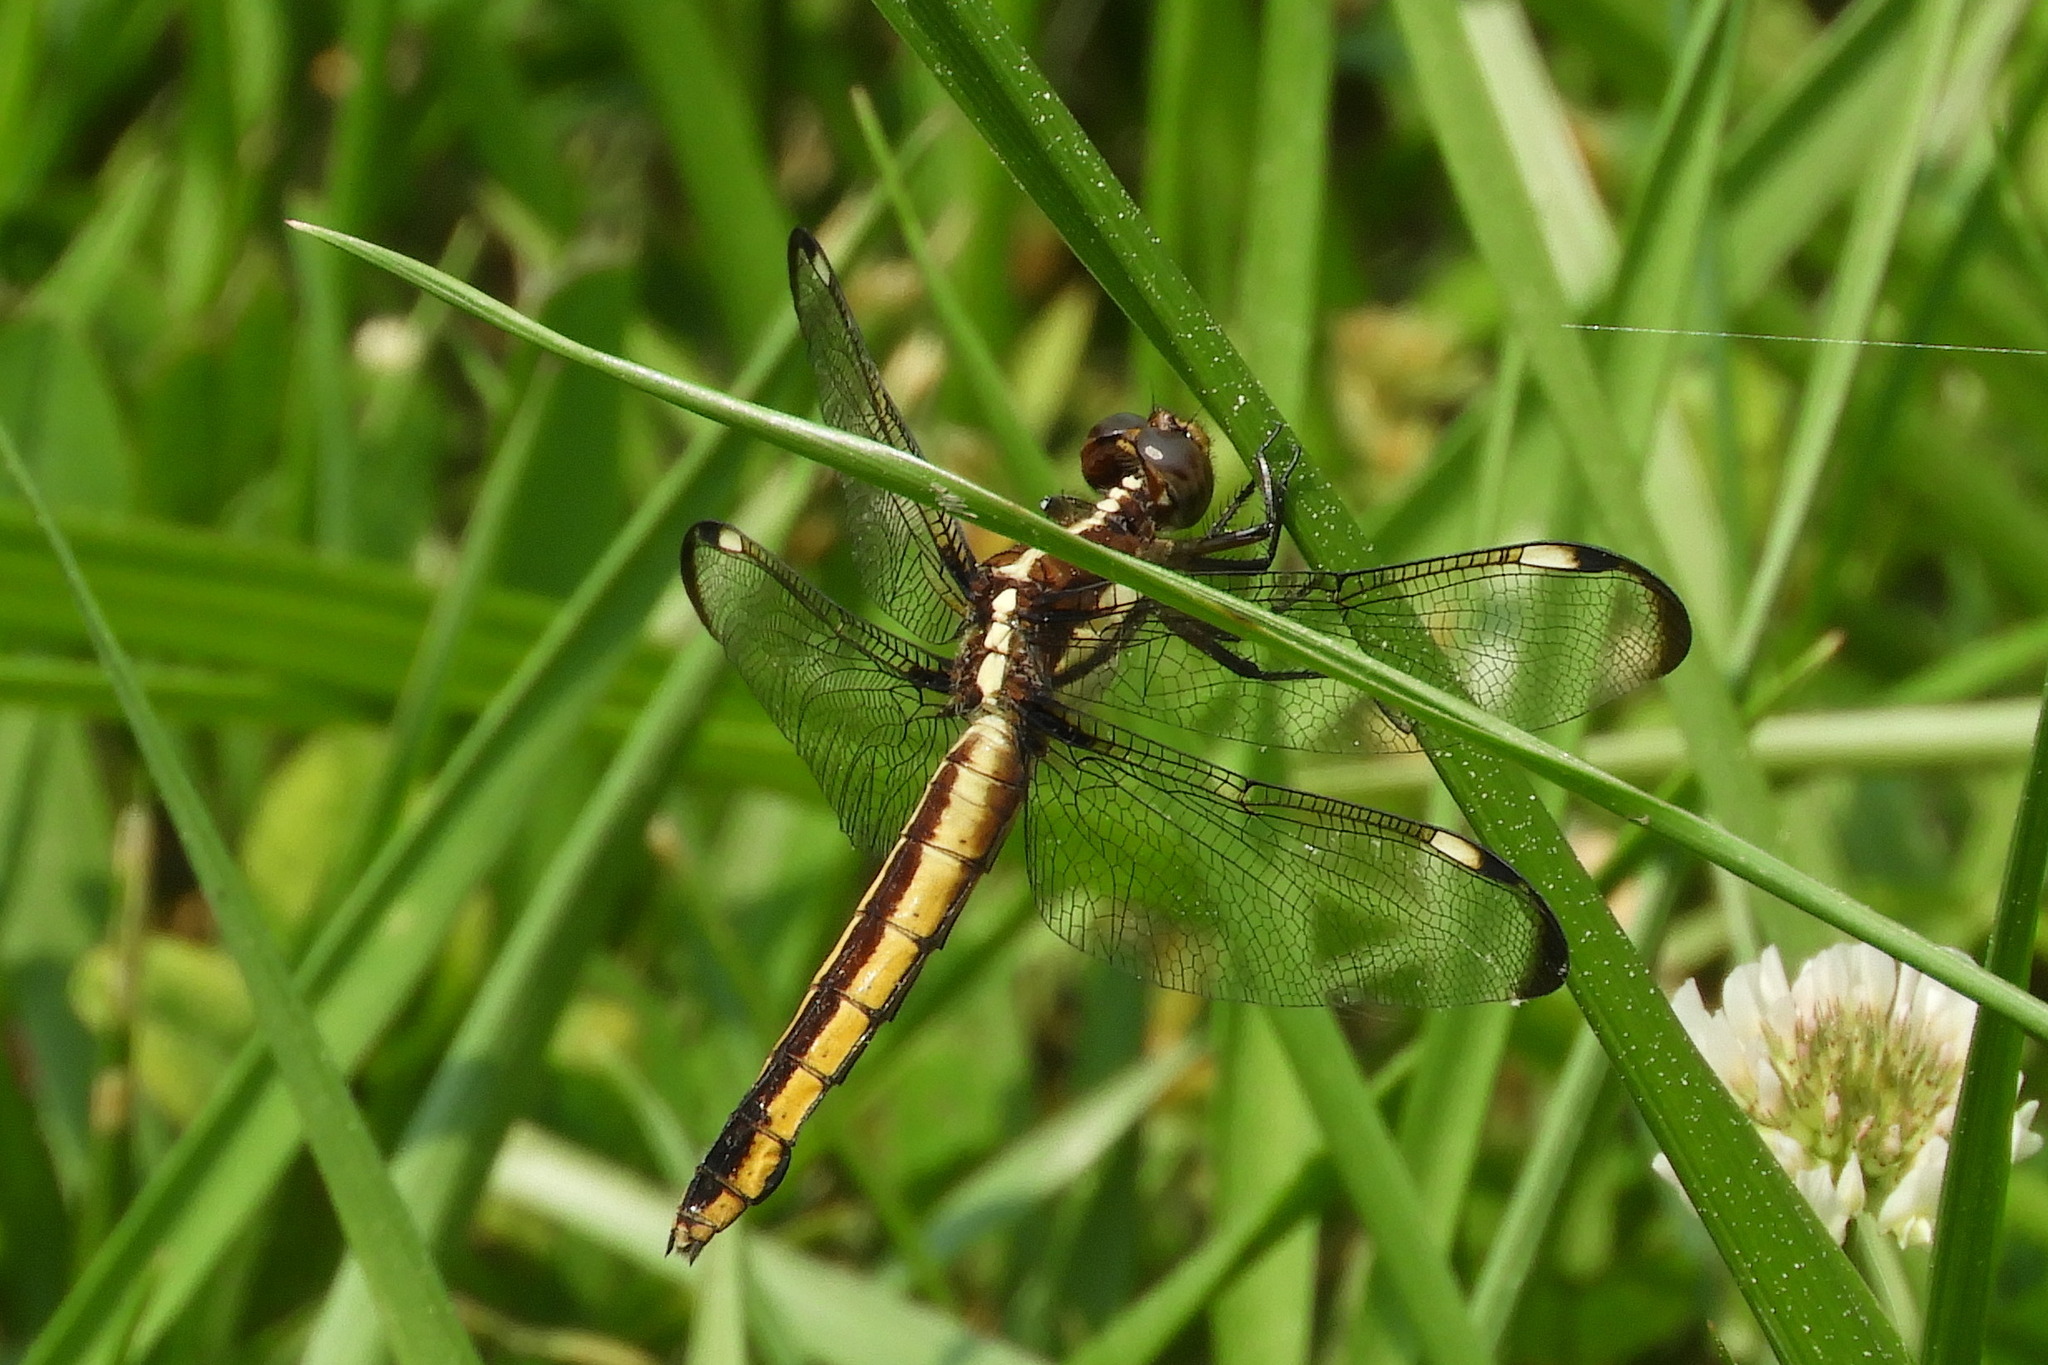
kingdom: Animalia
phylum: Arthropoda
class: Insecta
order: Odonata
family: Libellulidae
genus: Libellula
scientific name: Libellula cyanea
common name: Spangled skimmer
